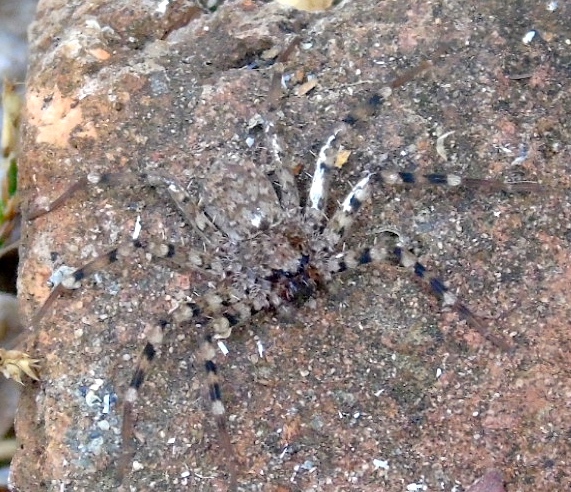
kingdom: Animalia
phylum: Arthropoda
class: Arachnida
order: Araneae
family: Selenopidae
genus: Selenops
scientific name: Selenops
